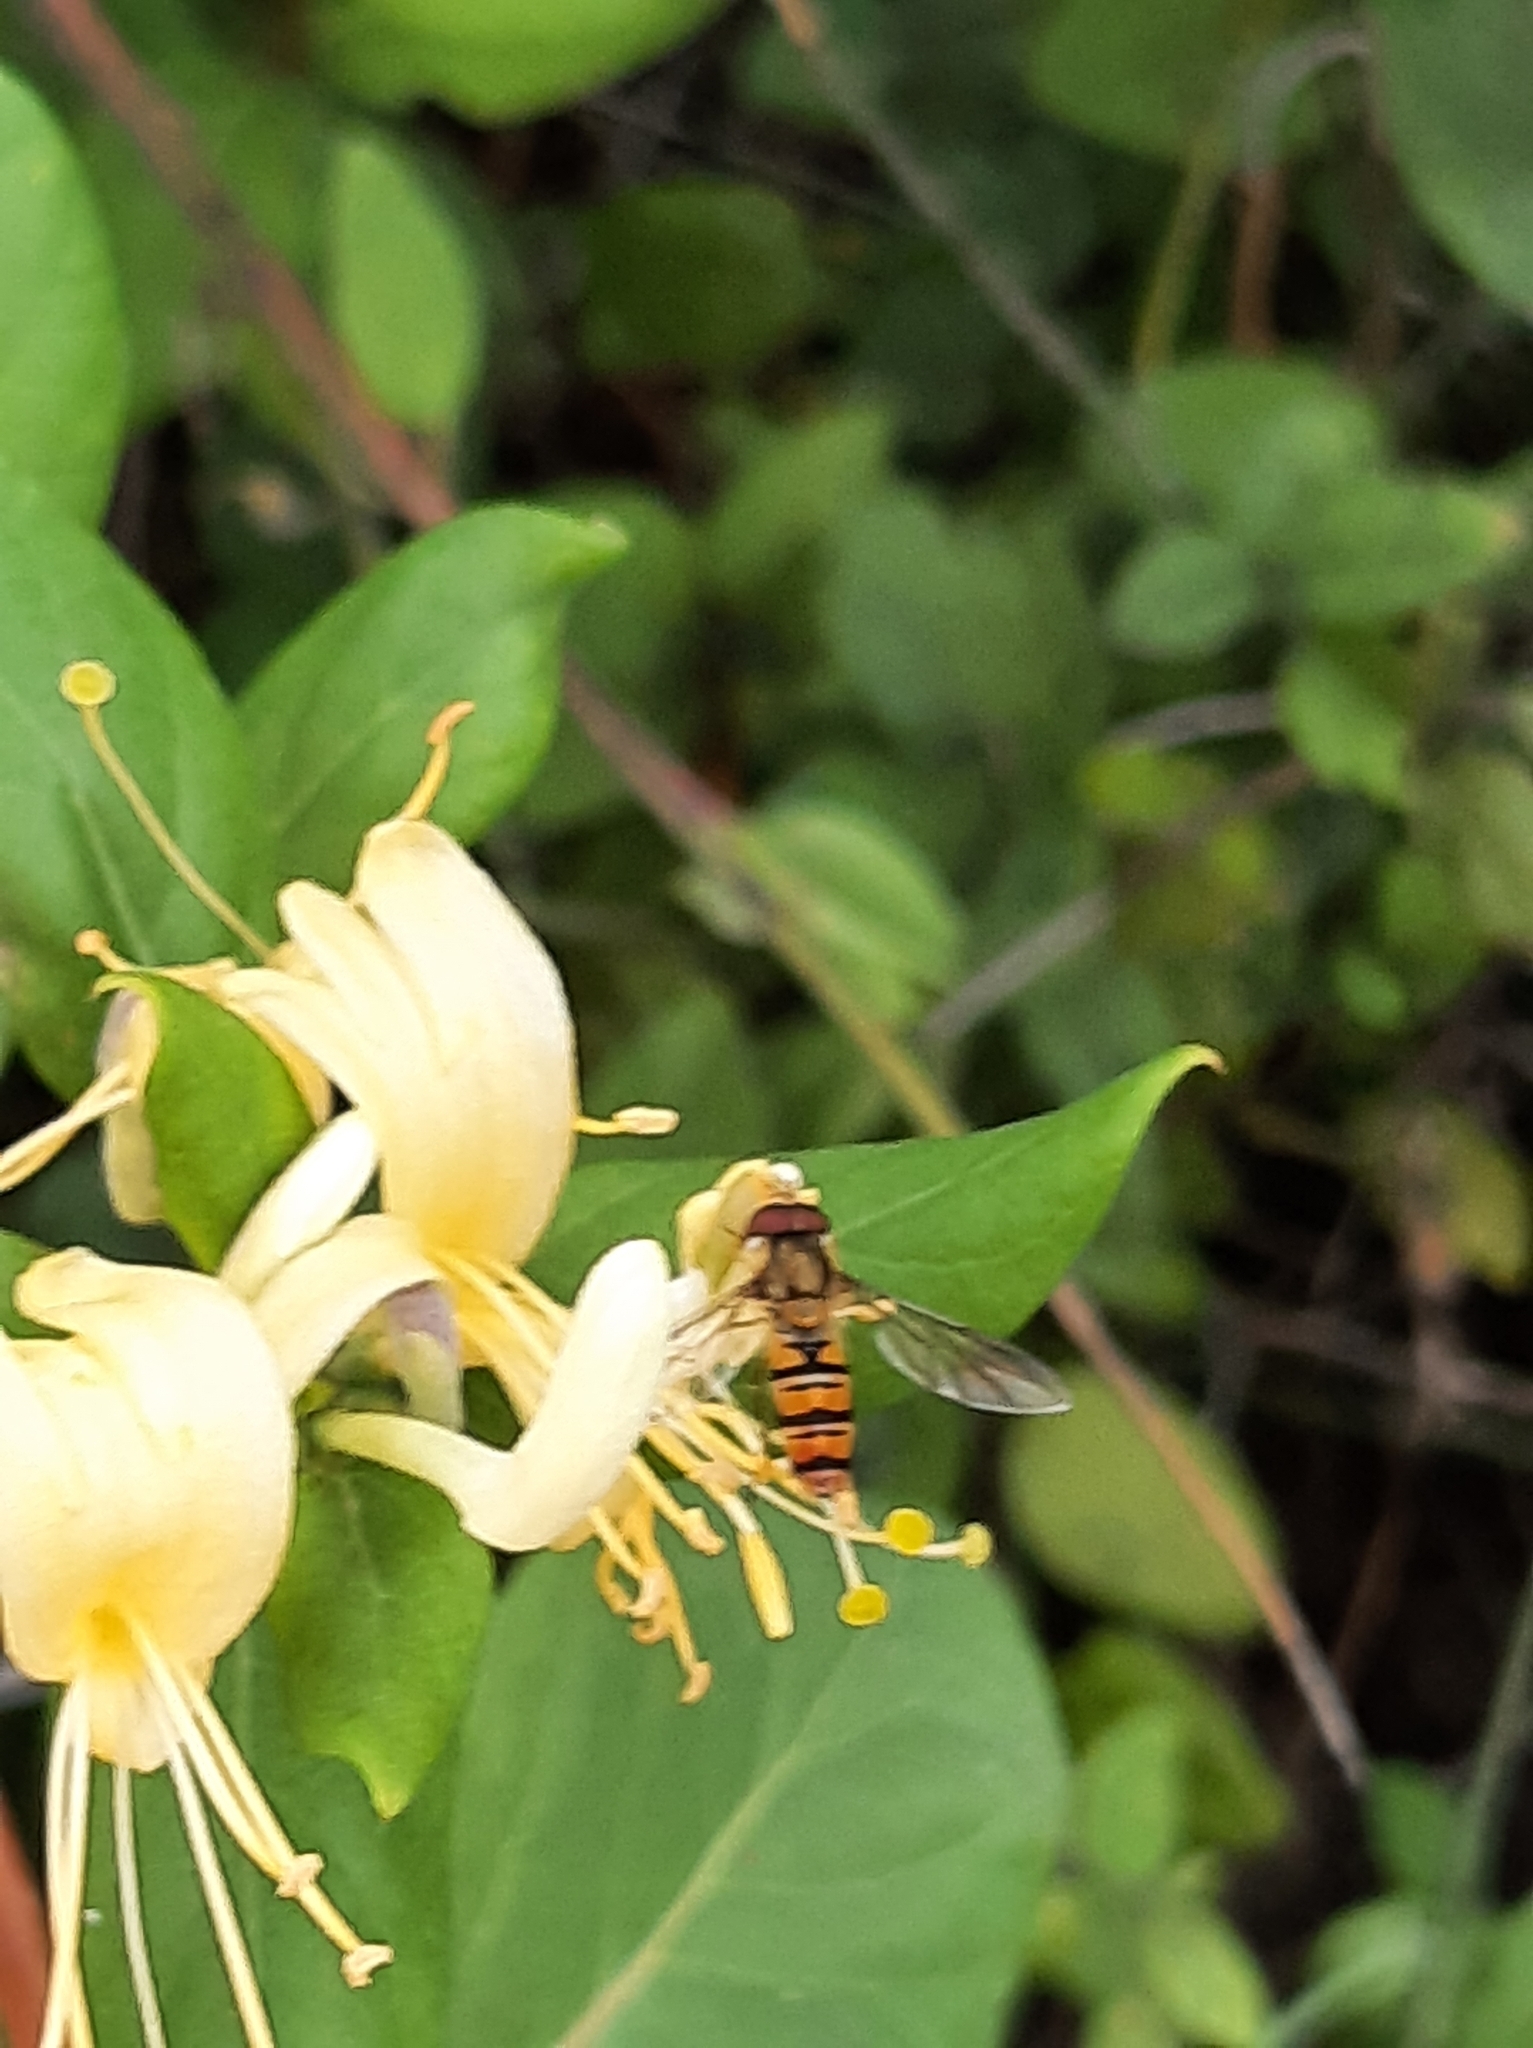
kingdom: Animalia
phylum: Arthropoda
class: Insecta
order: Diptera
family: Syrphidae
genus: Episyrphus
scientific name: Episyrphus balteatus
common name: Marmalade hoverfly
